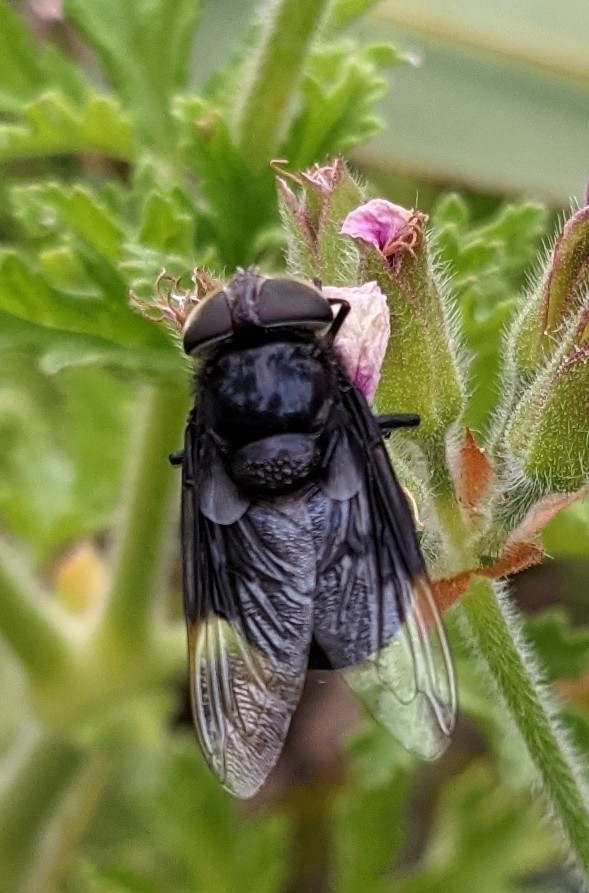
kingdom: Animalia
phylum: Arthropoda
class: Insecta
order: Diptera
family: Syrphidae
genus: Copestylum
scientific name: Copestylum mexicanum
